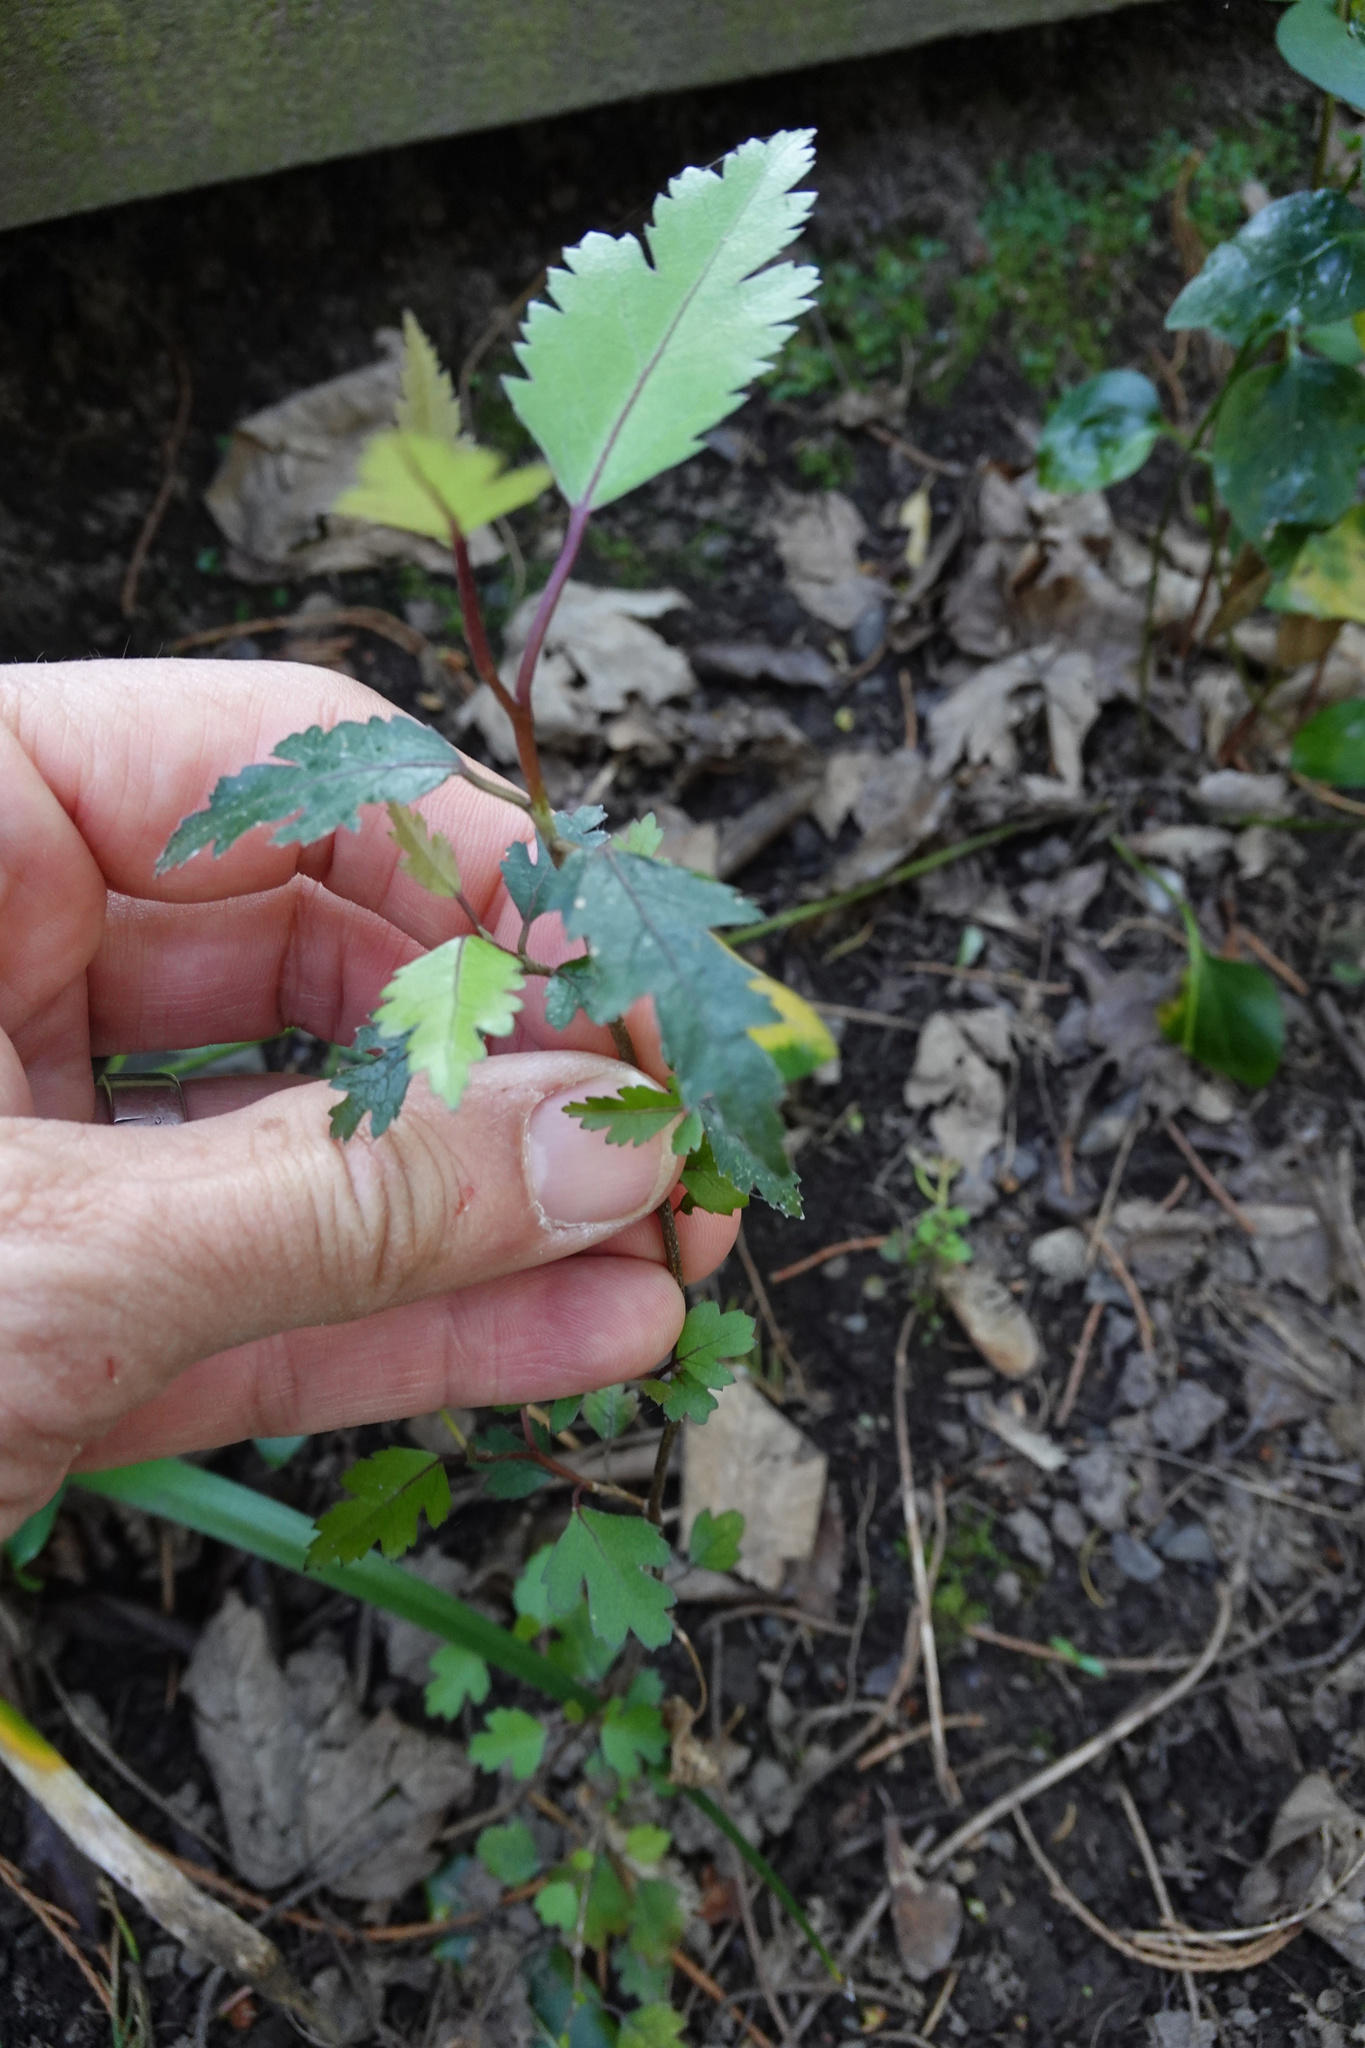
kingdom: Plantae
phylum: Tracheophyta
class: Magnoliopsida
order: Malvales
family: Malvaceae
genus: Plagianthus
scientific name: Plagianthus regius
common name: Manatu
